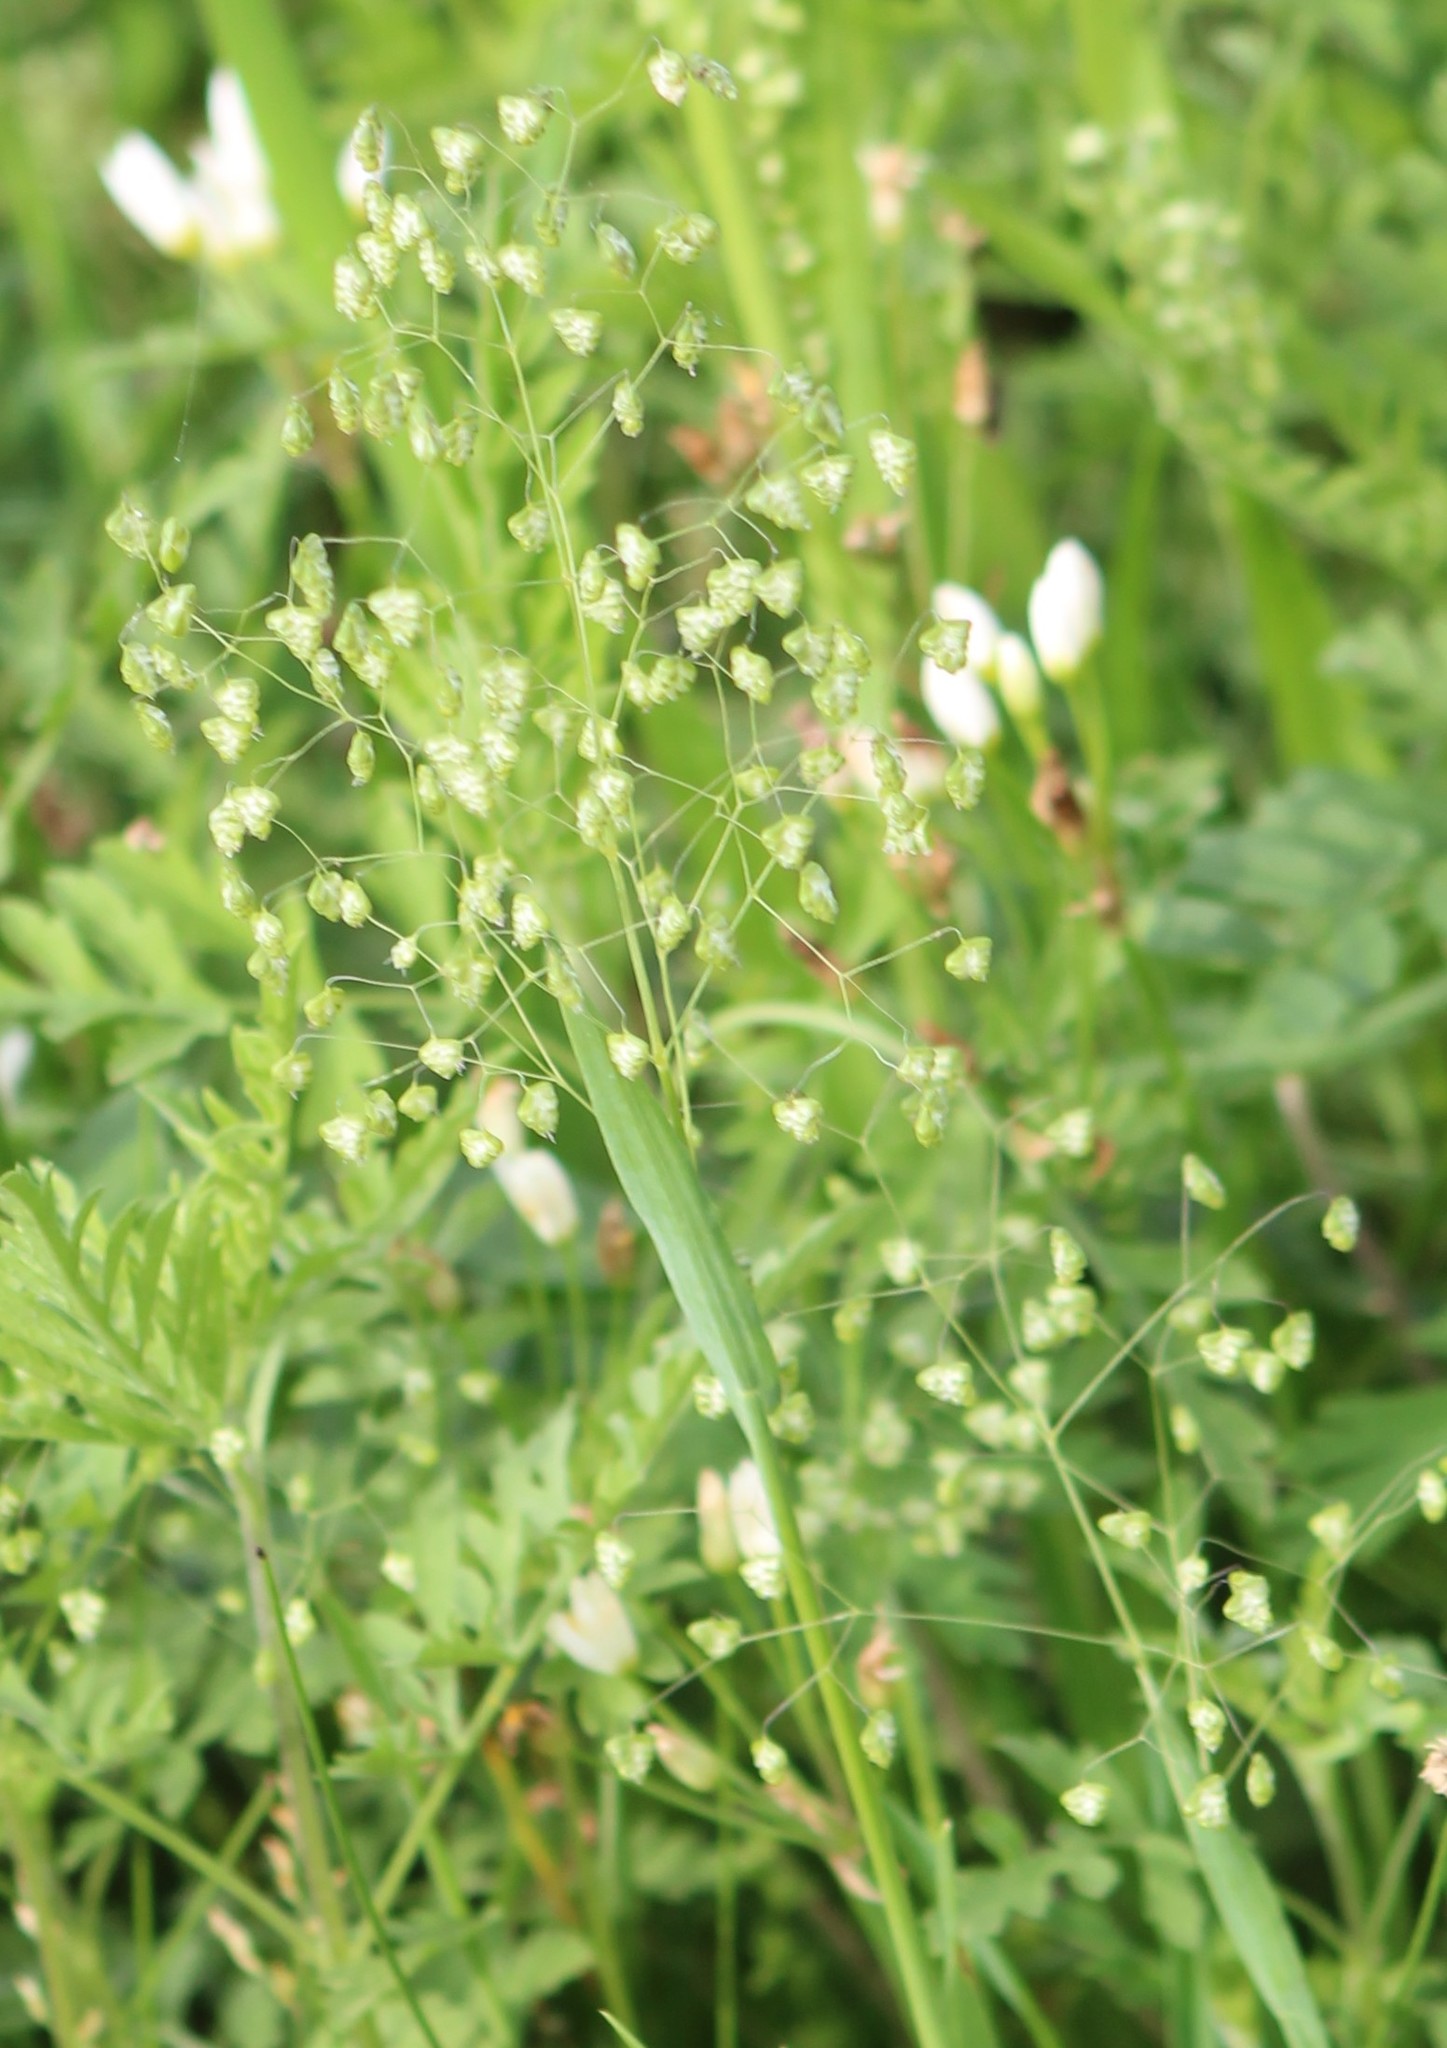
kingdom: Plantae
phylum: Tracheophyta
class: Liliopsida
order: Poales
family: Poaceae
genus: Briza
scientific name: Briza minor
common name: Lesser quaking-grass
